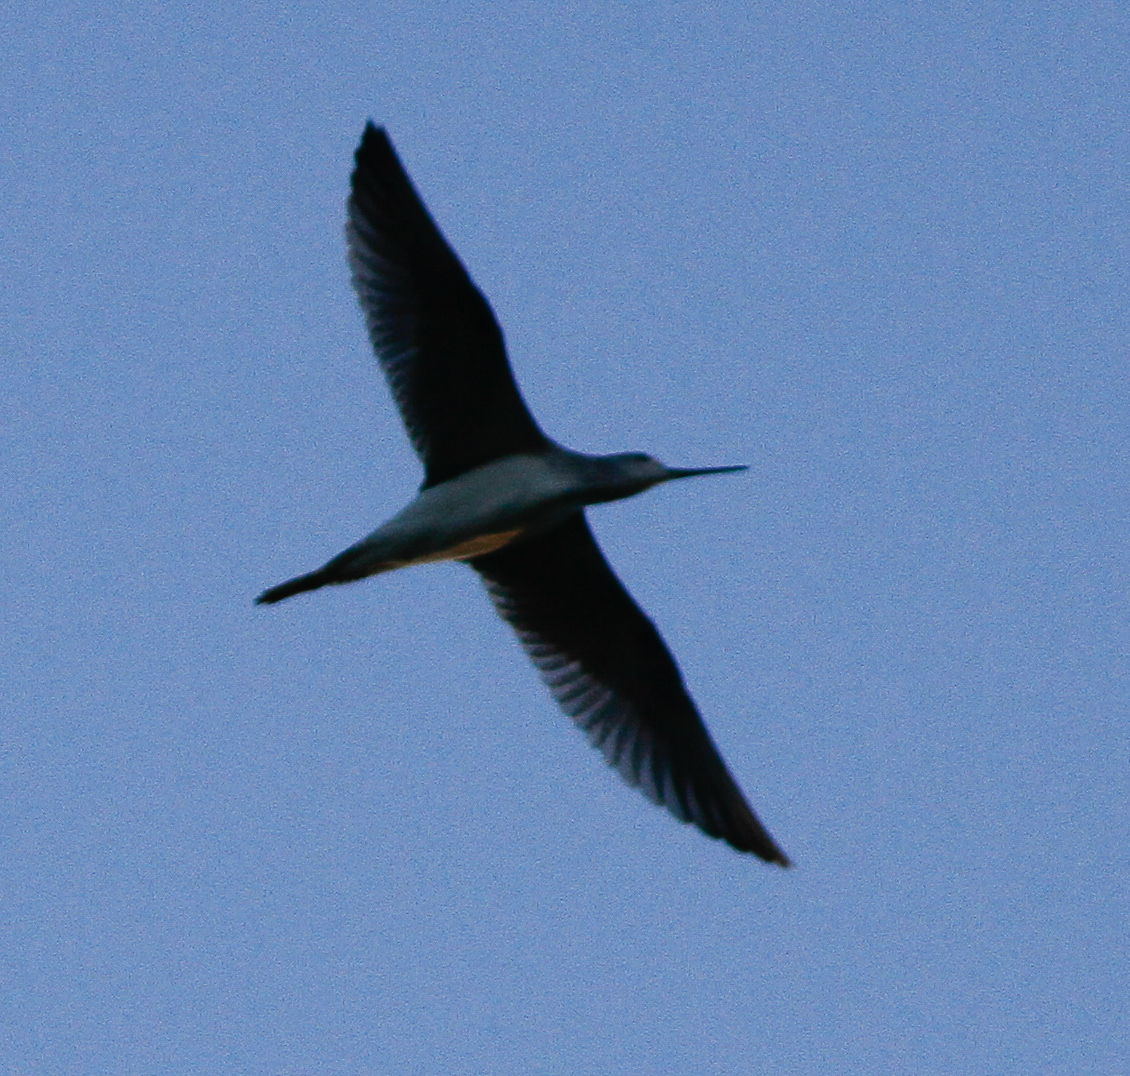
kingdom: Animalia
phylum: Chordata
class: Aves
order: Charadriiformes
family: Scolopacidae
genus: Tringa
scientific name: Tringa melanoleuca
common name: Greater yellowlegs
